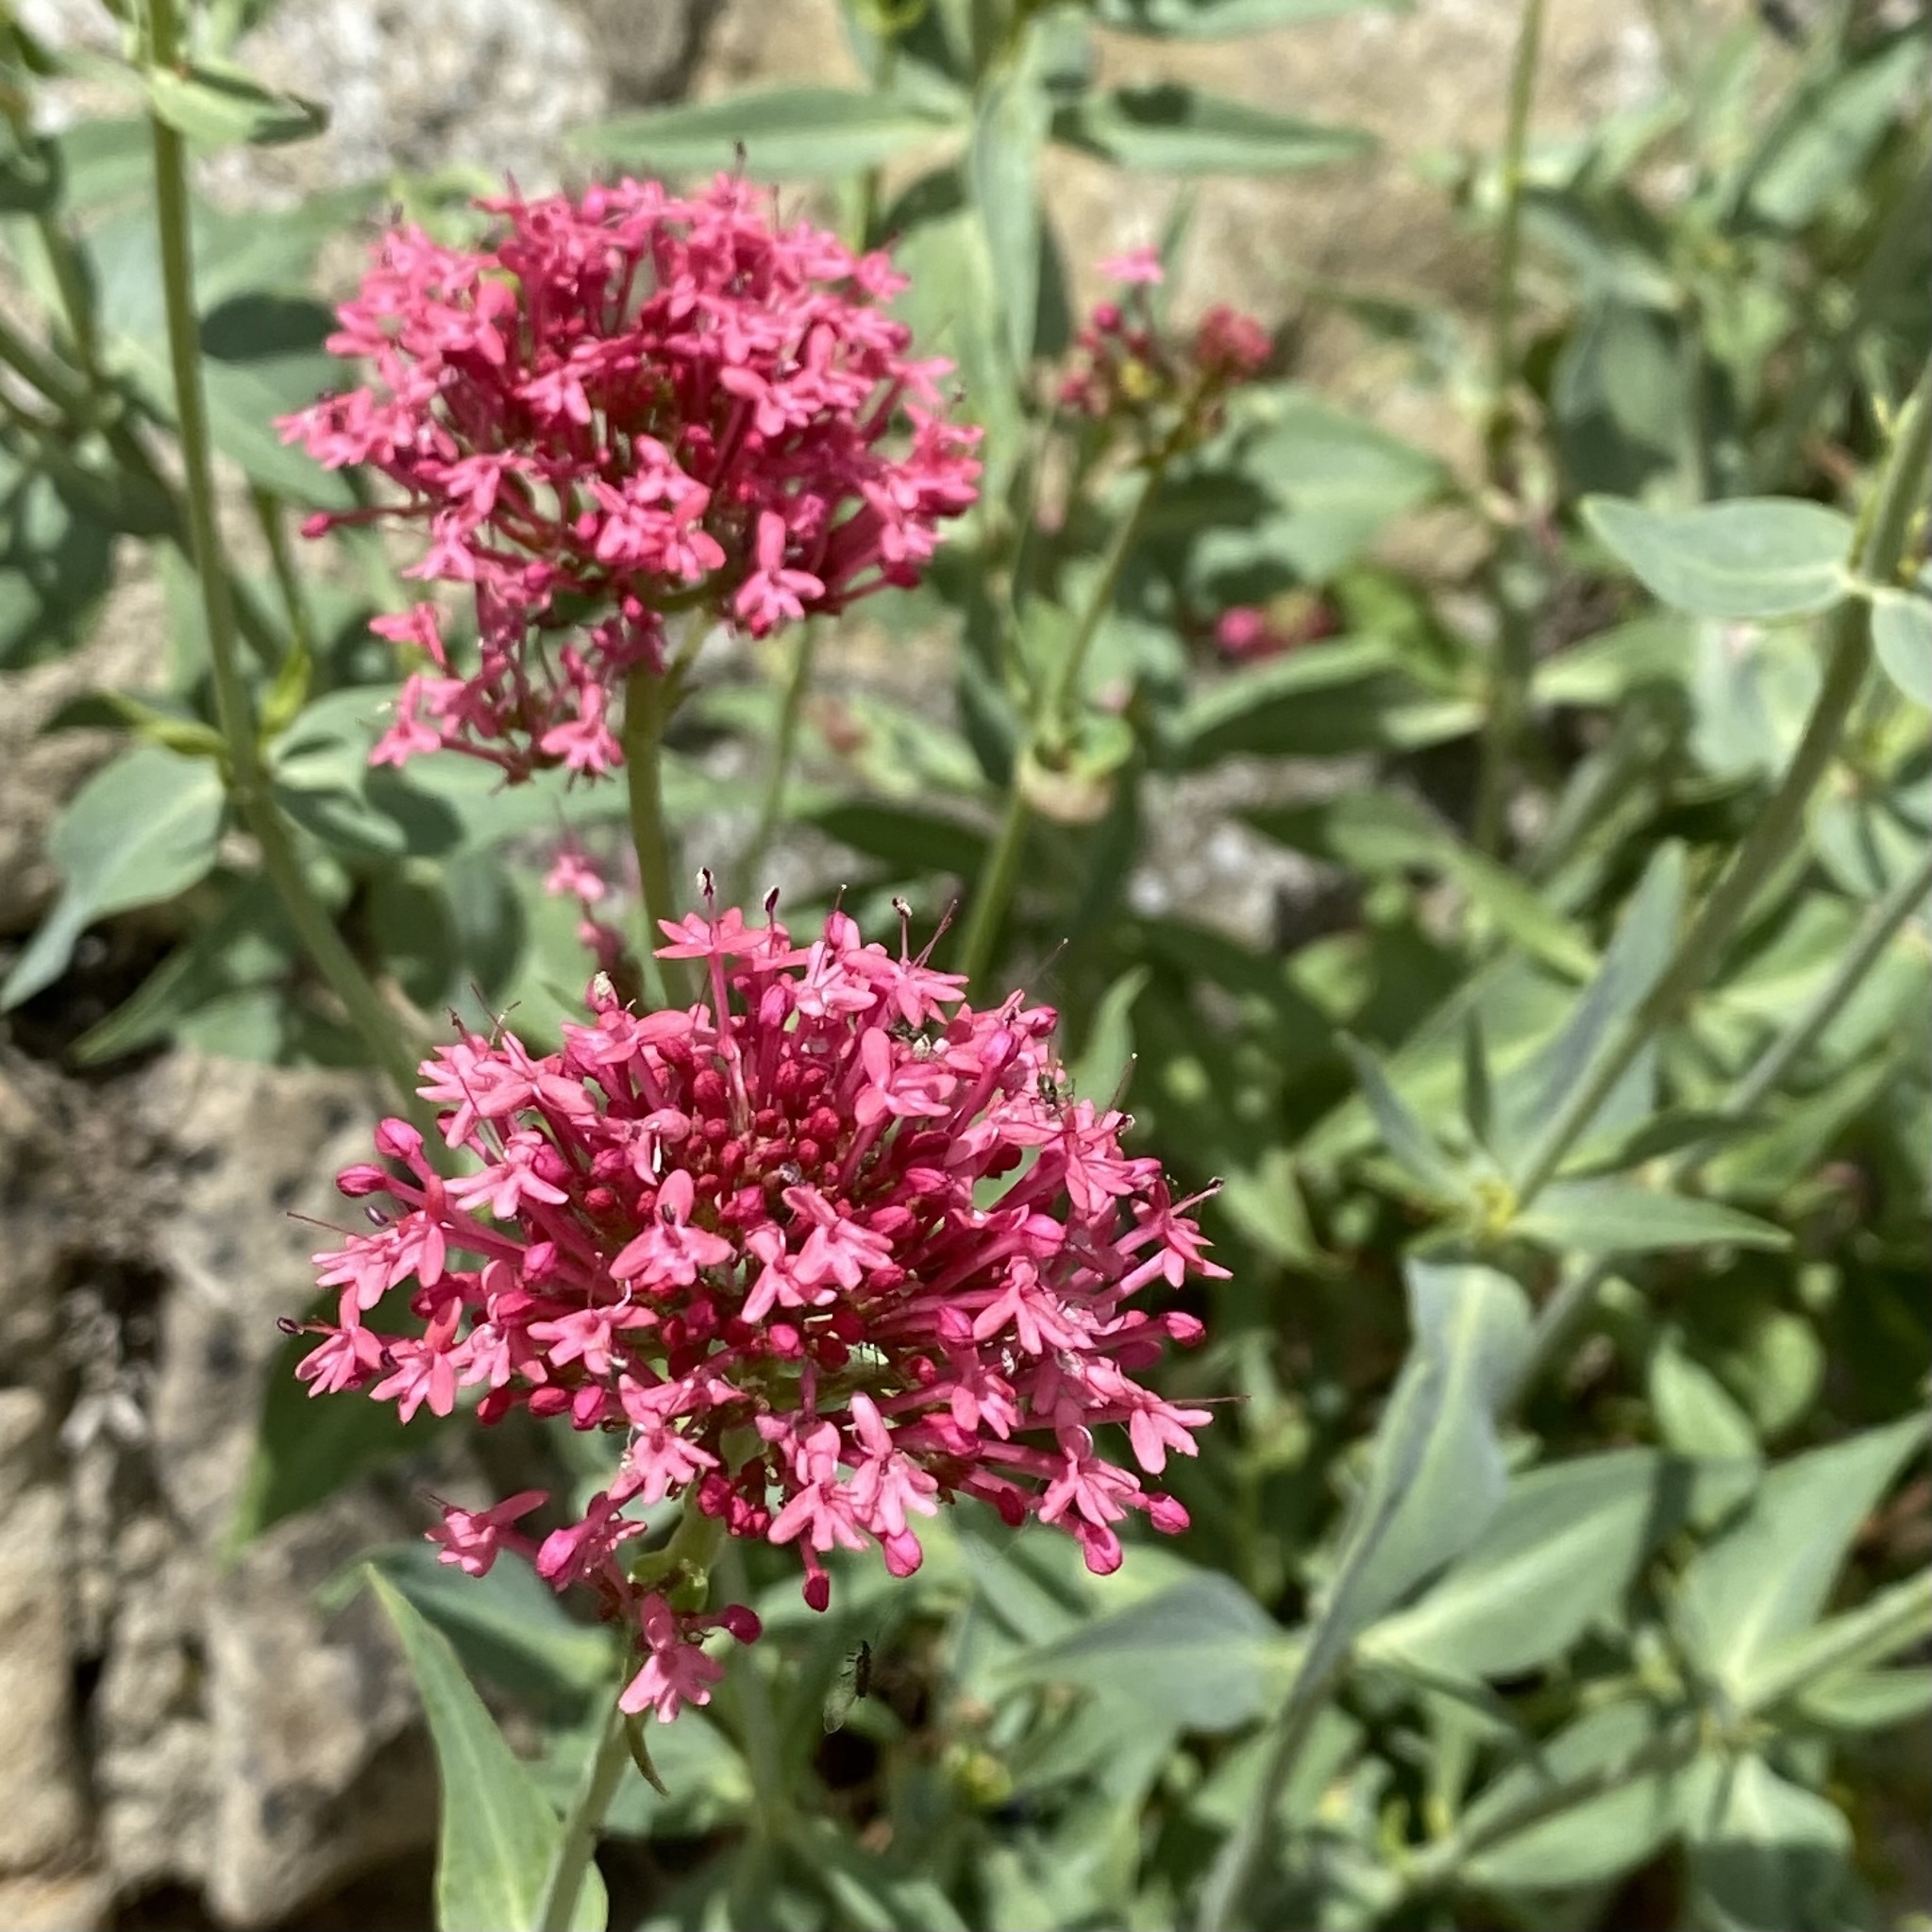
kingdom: Plantae
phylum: Tracheophyta
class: Magnoliopsida
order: Dipsacales
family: Caprifoliaceae
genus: Centranthus
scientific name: Centranthus ruber
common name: Red valerian
